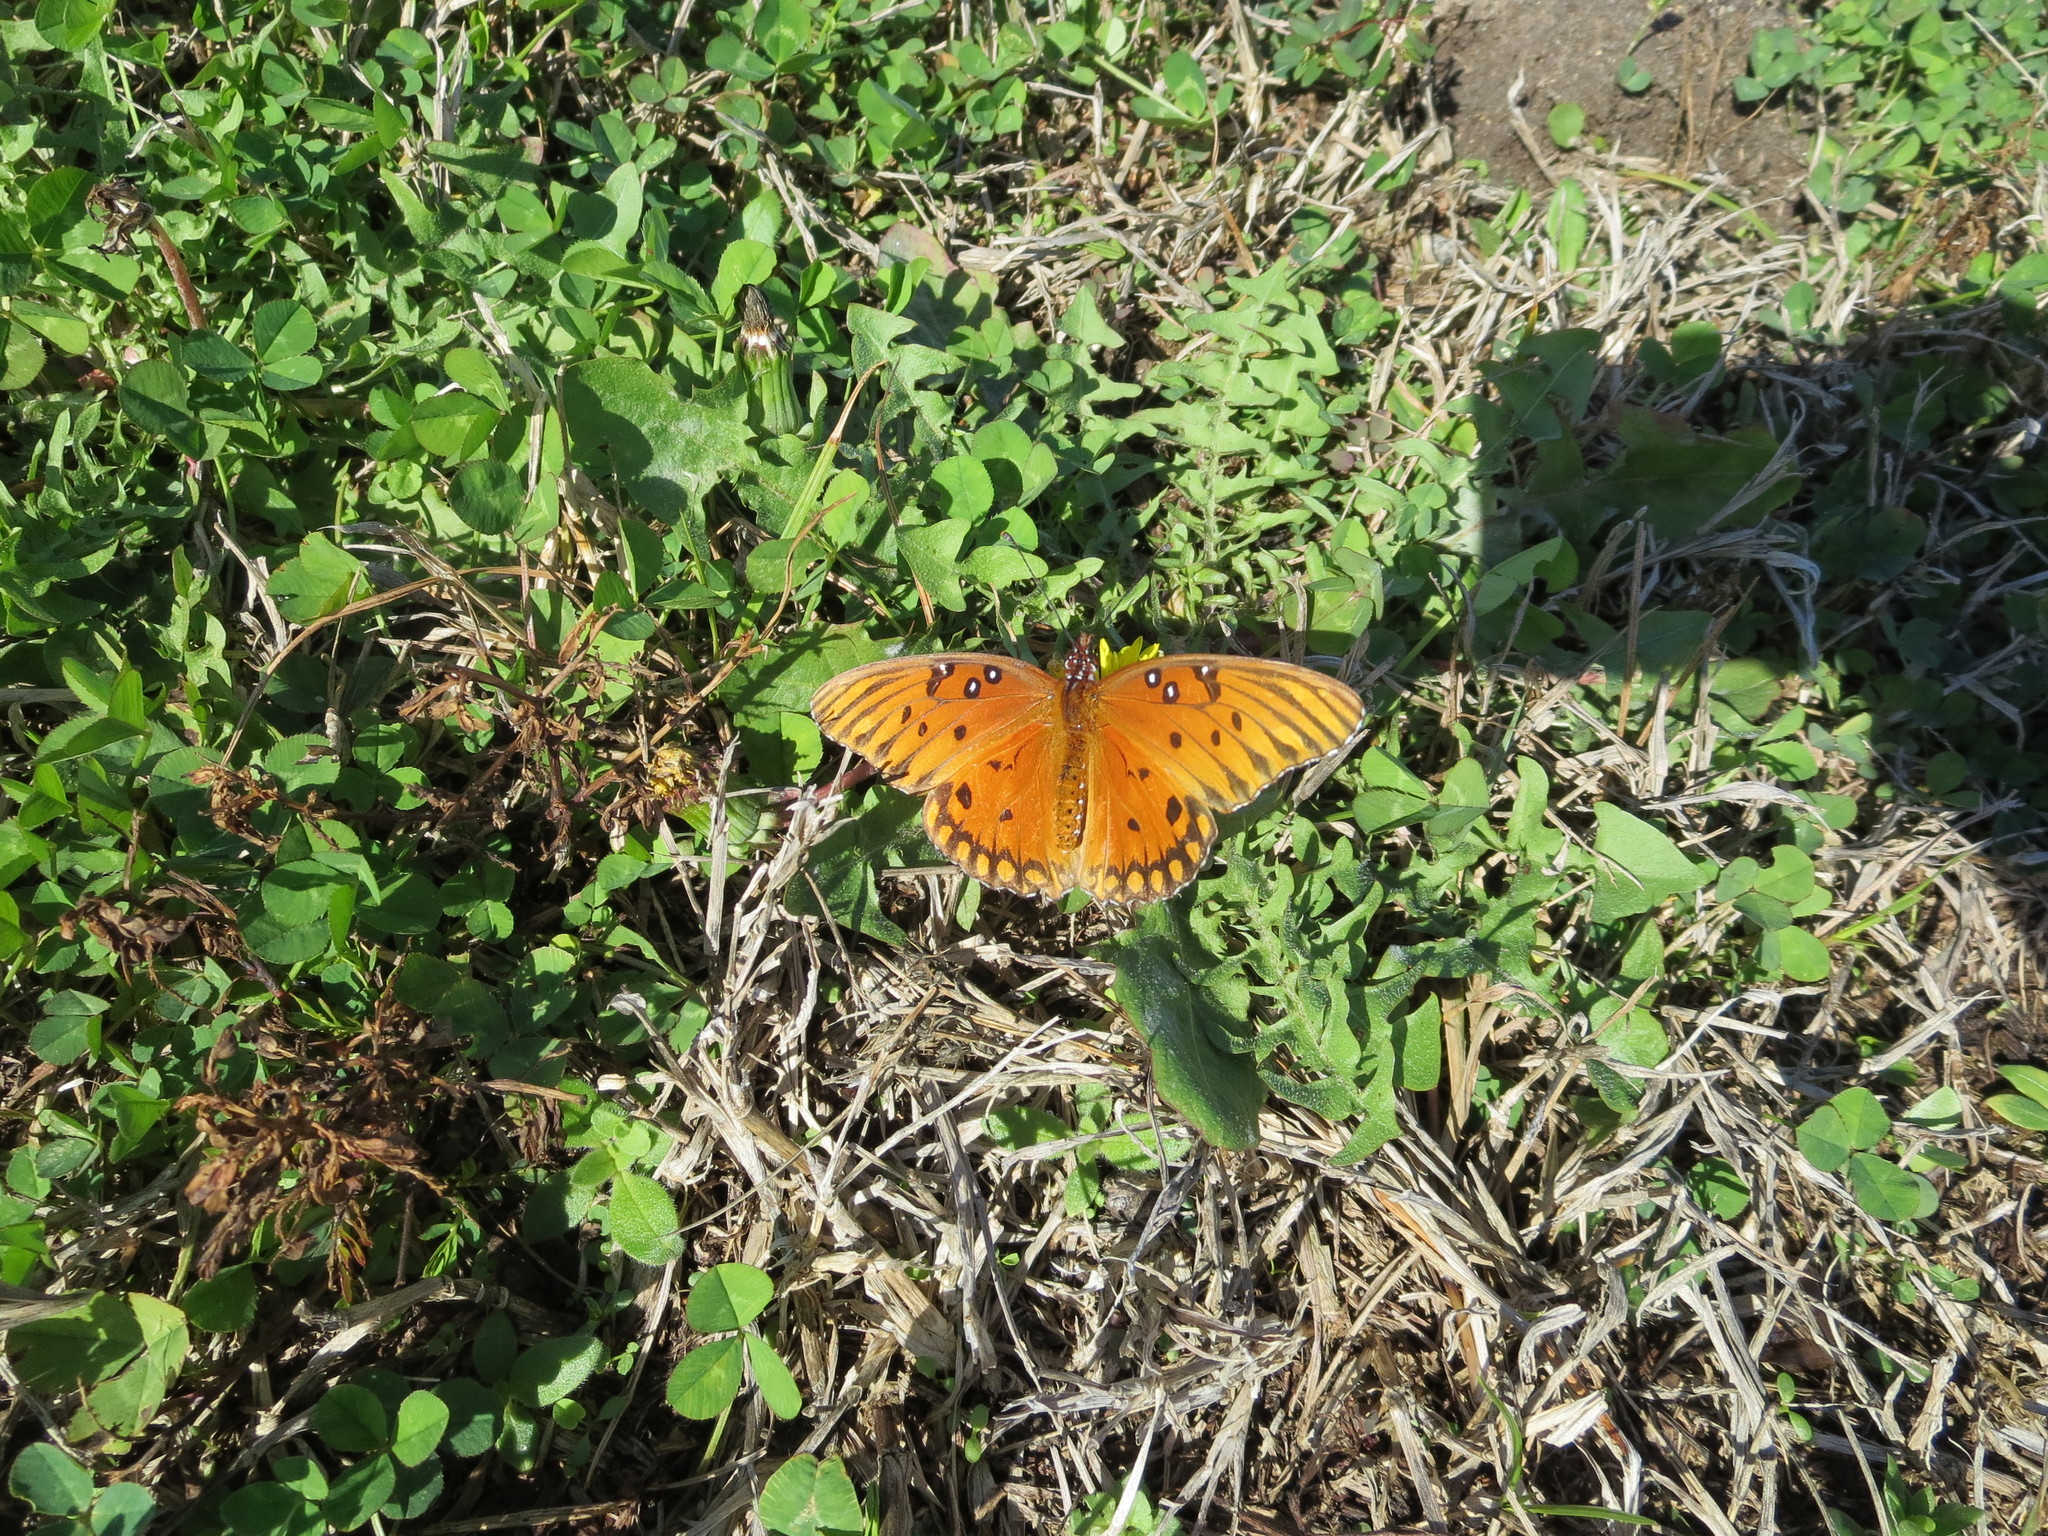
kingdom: Animalia
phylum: Arthropoda
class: Insecta
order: Lepidoptera
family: Nymphalidae
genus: Dione
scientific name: Dione vanillae
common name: Gulf fritillary
